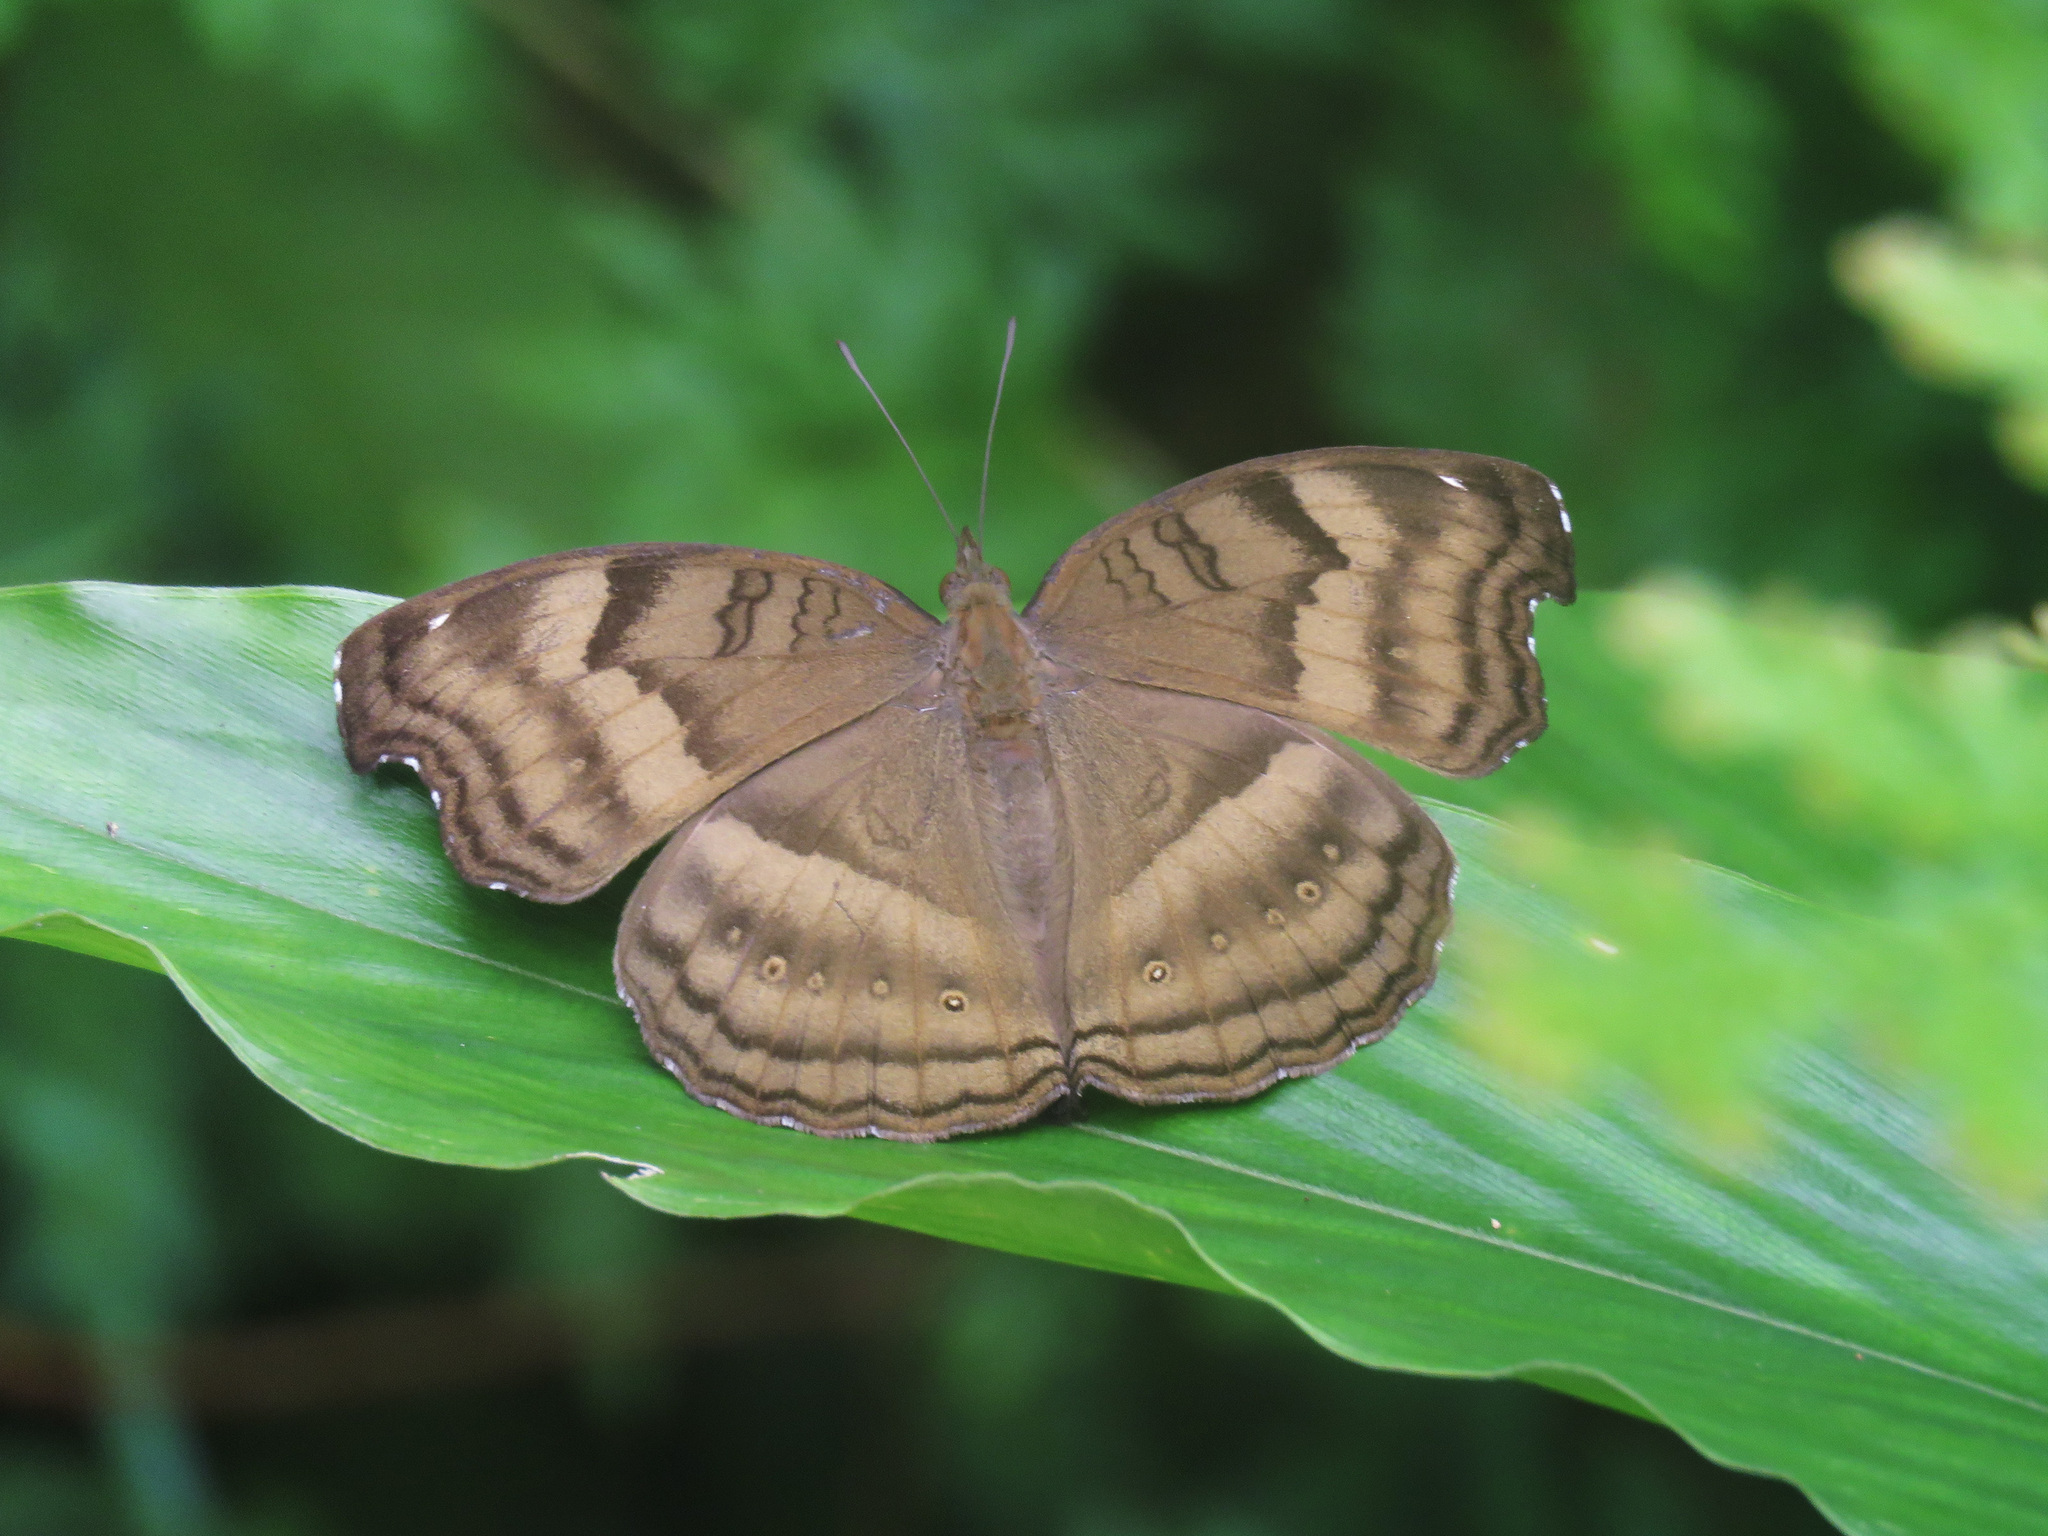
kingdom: Animalia
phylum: Arthropoda
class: Insecta
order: Lepidoptera
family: Nymphalidae
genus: Junonia
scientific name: Junonia iphita
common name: Chocolate pansy
